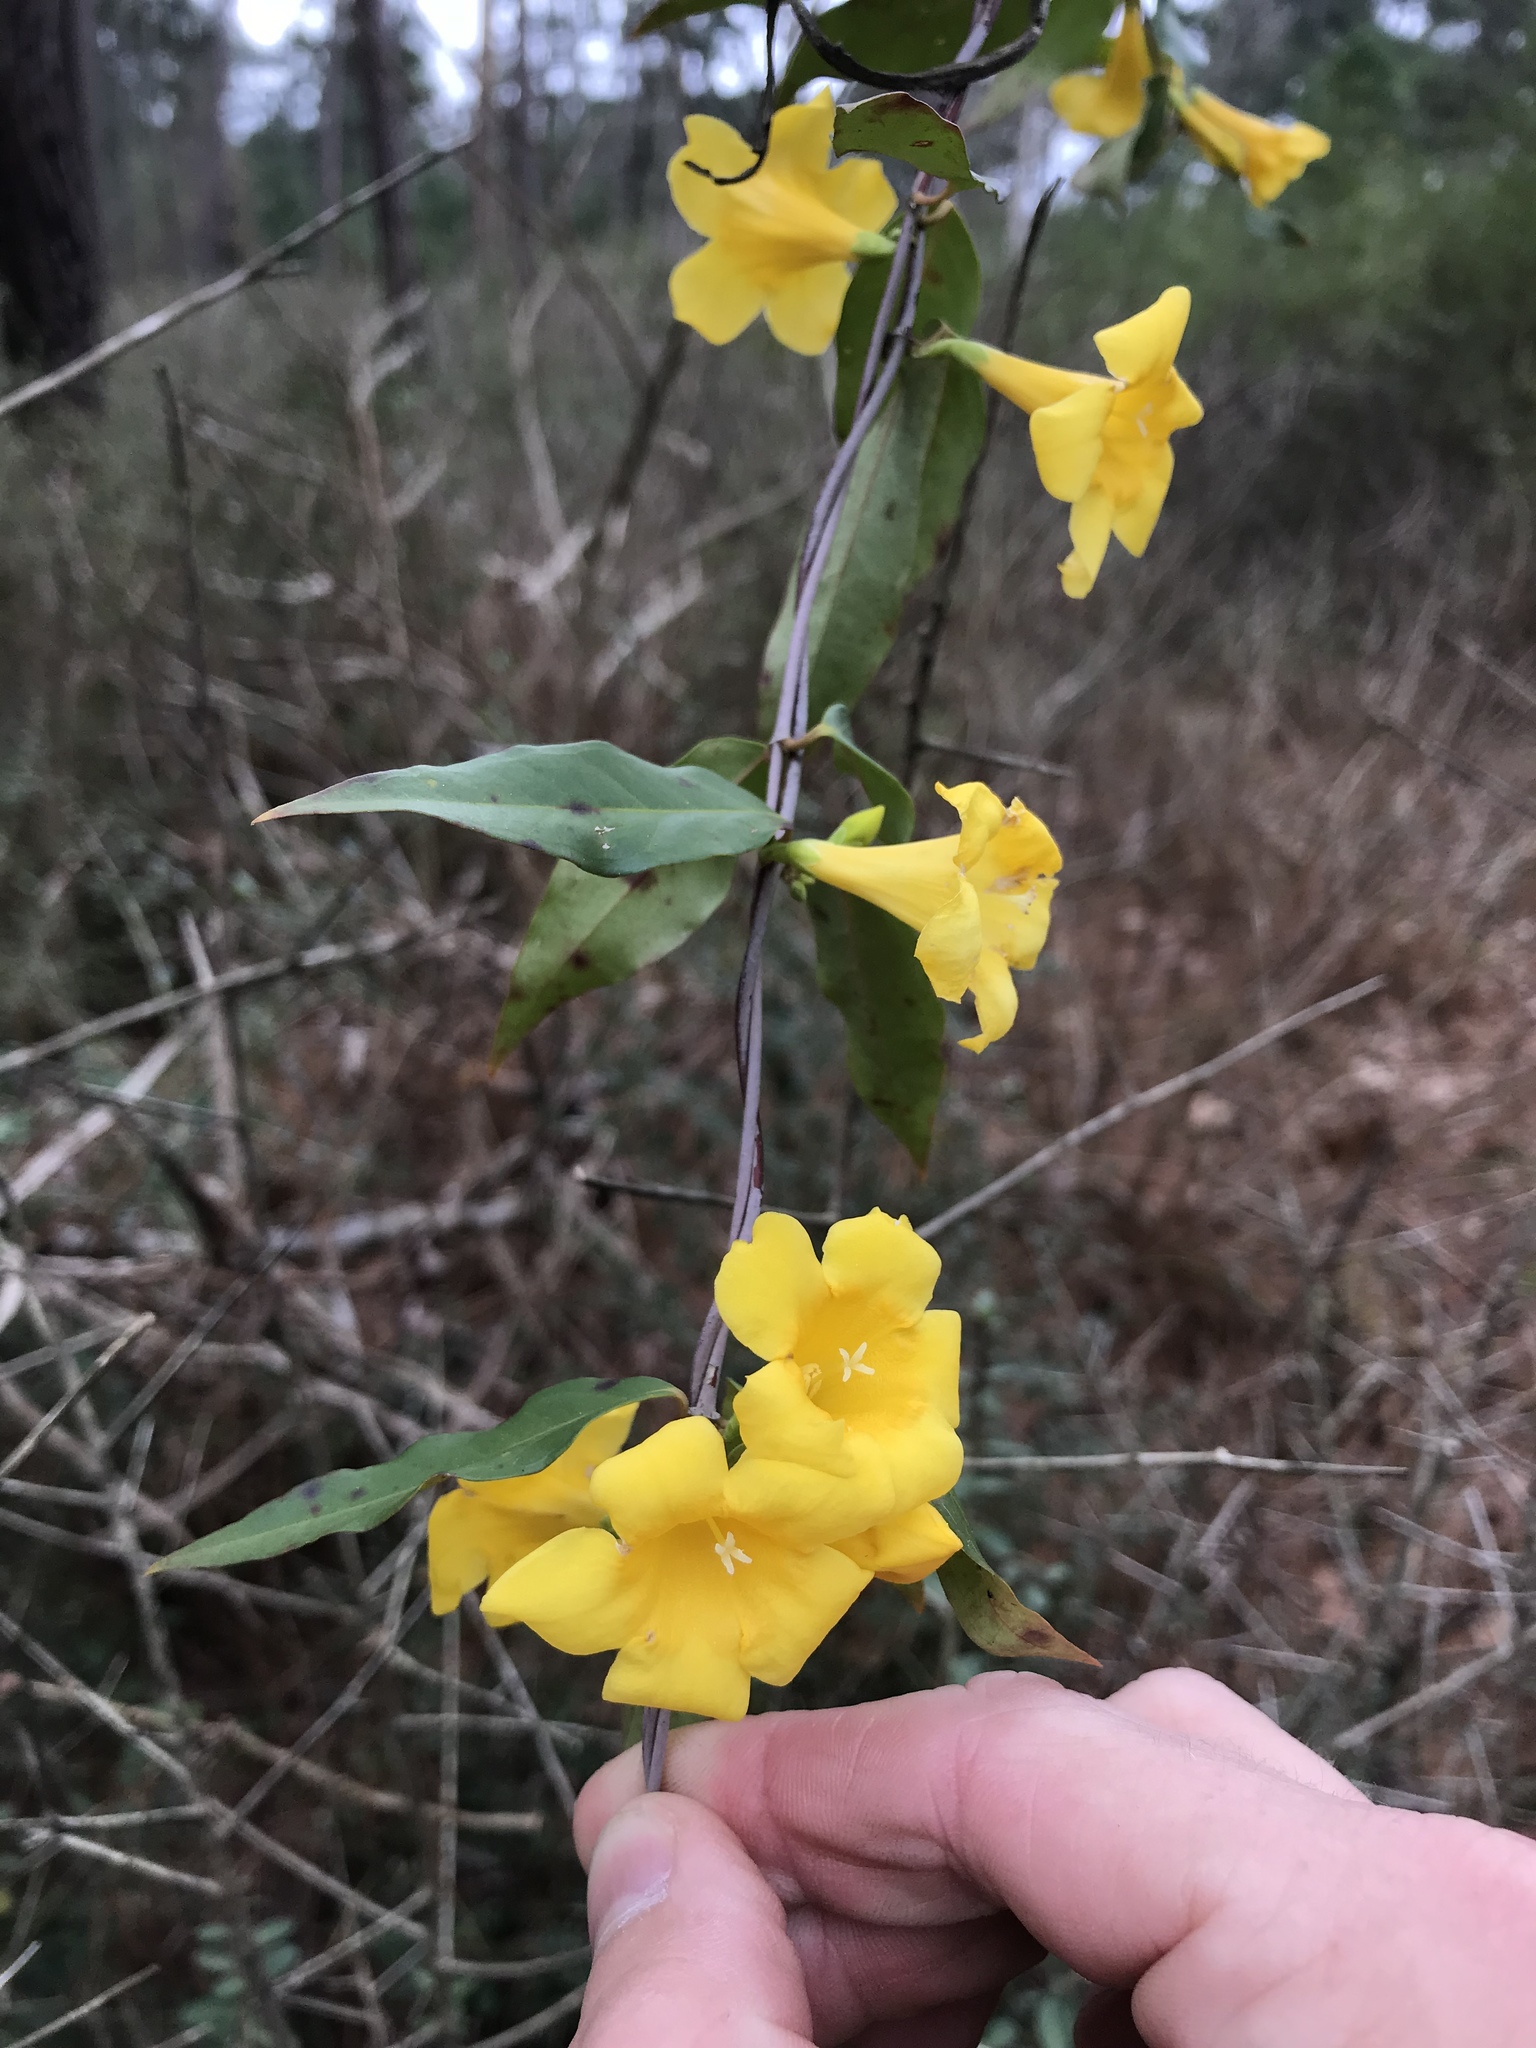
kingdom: Plantae
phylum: Tracheophyta
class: Magnoliopsida
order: Gentianales
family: Gelsemiaceae
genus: Gelsemium
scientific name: Gelsemium sempervirens
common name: Carolina-jasmine
